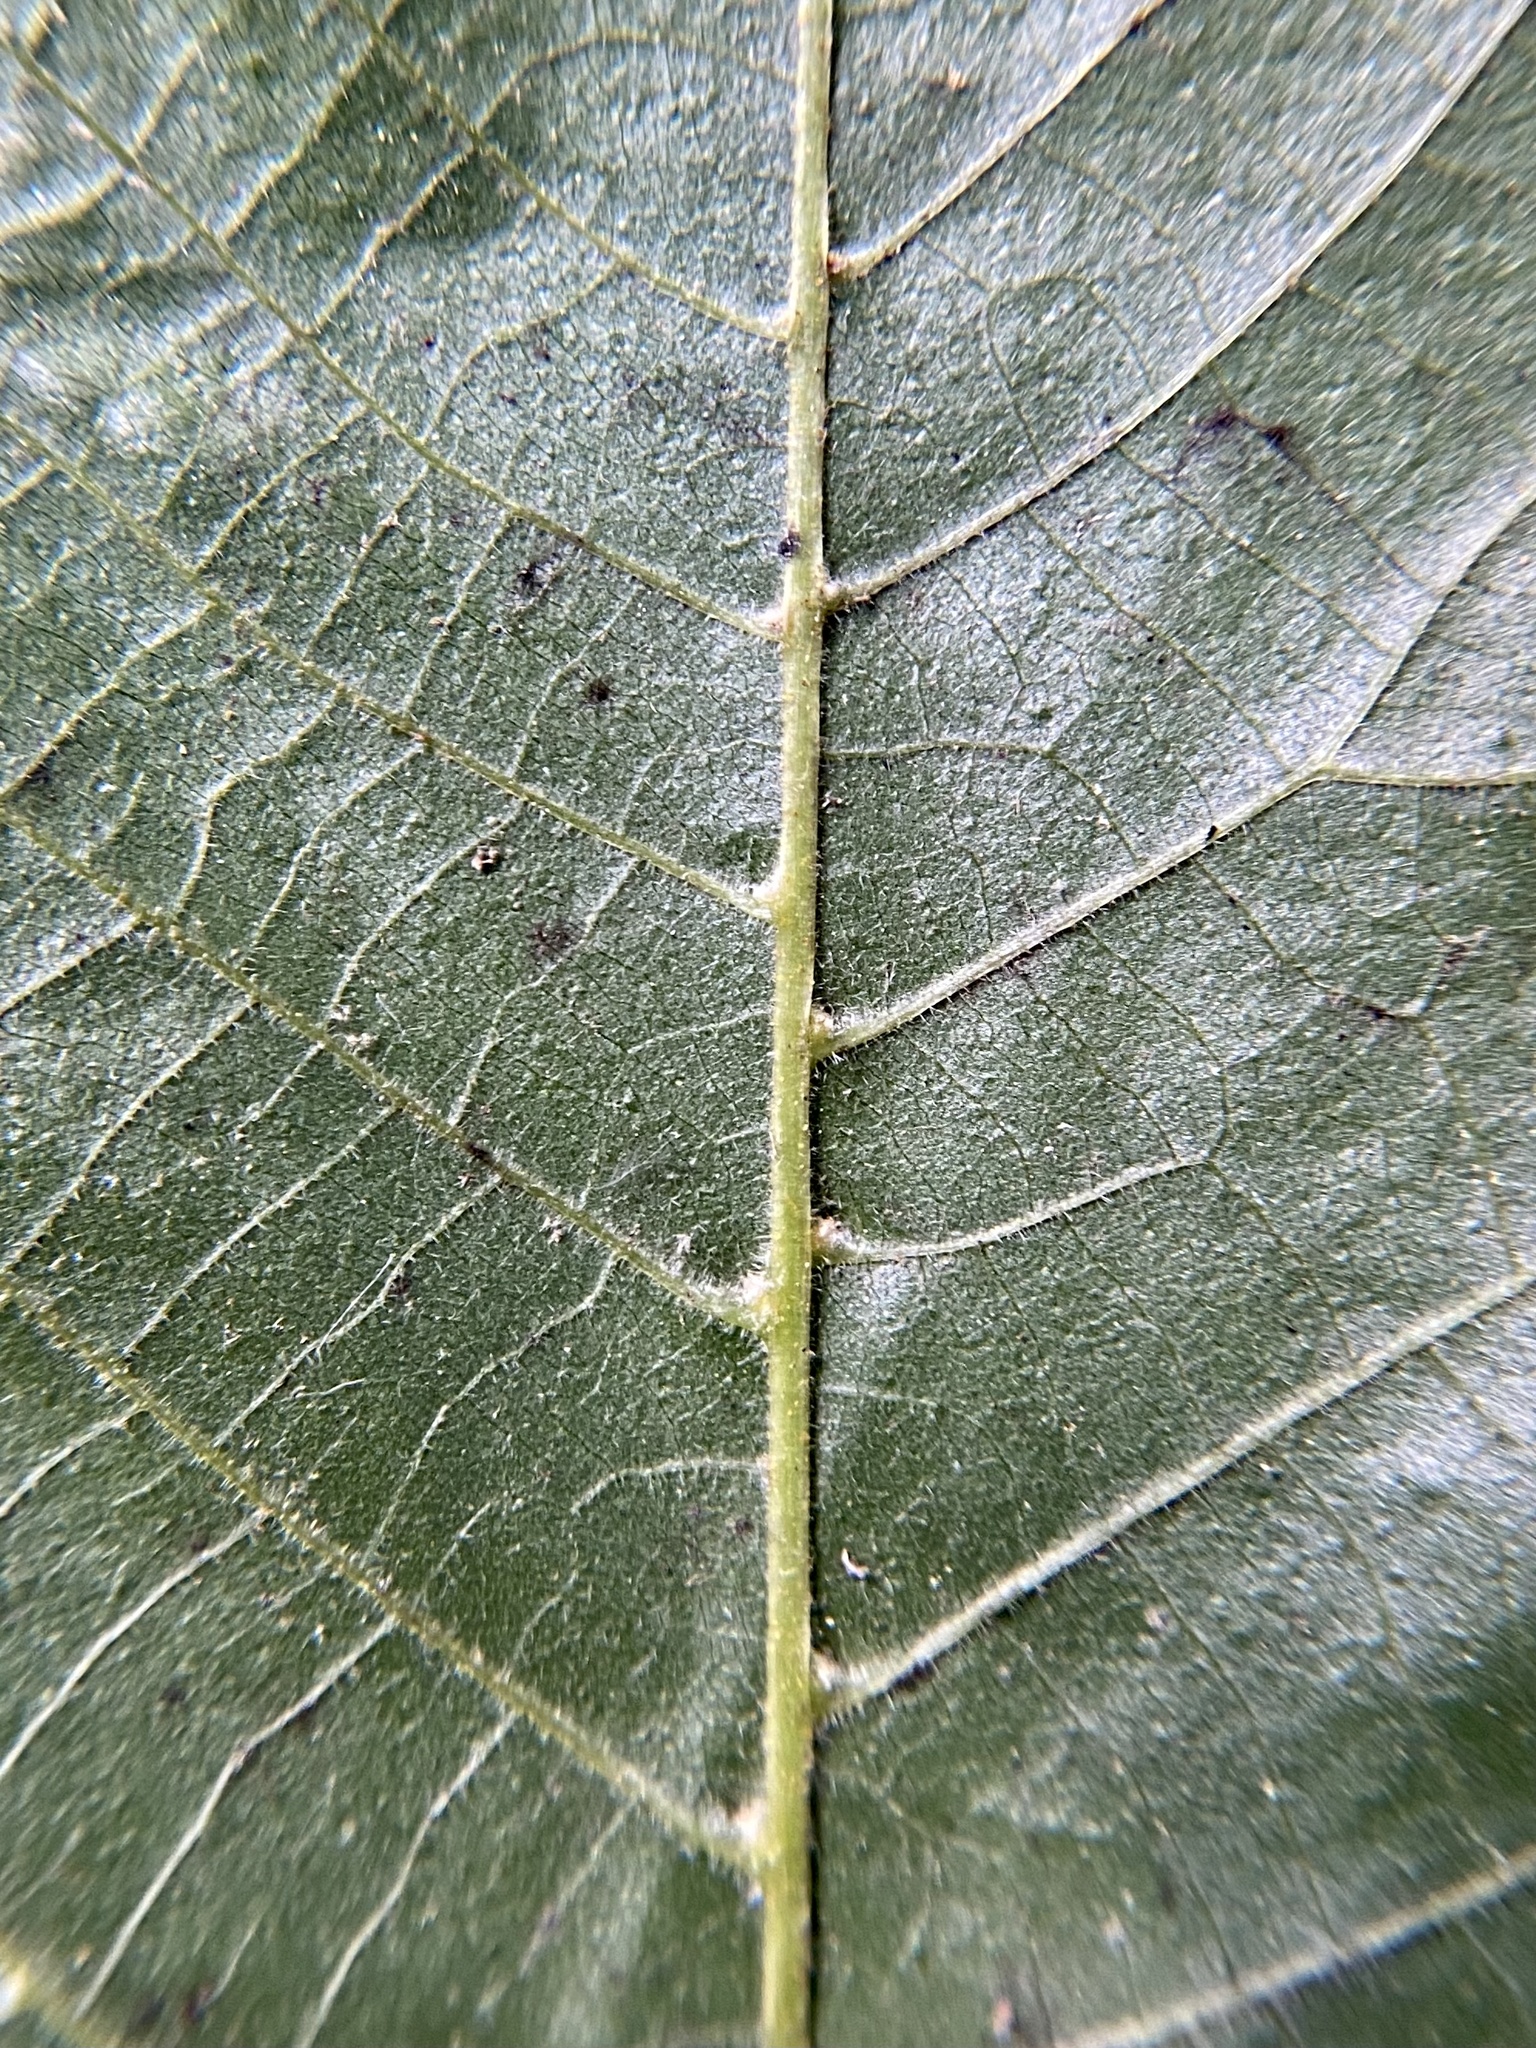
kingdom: Animalia
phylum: Arthropoda
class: Arachnida
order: Trombidiformes
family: Eriophyidae
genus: Aceria
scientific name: Aceria
